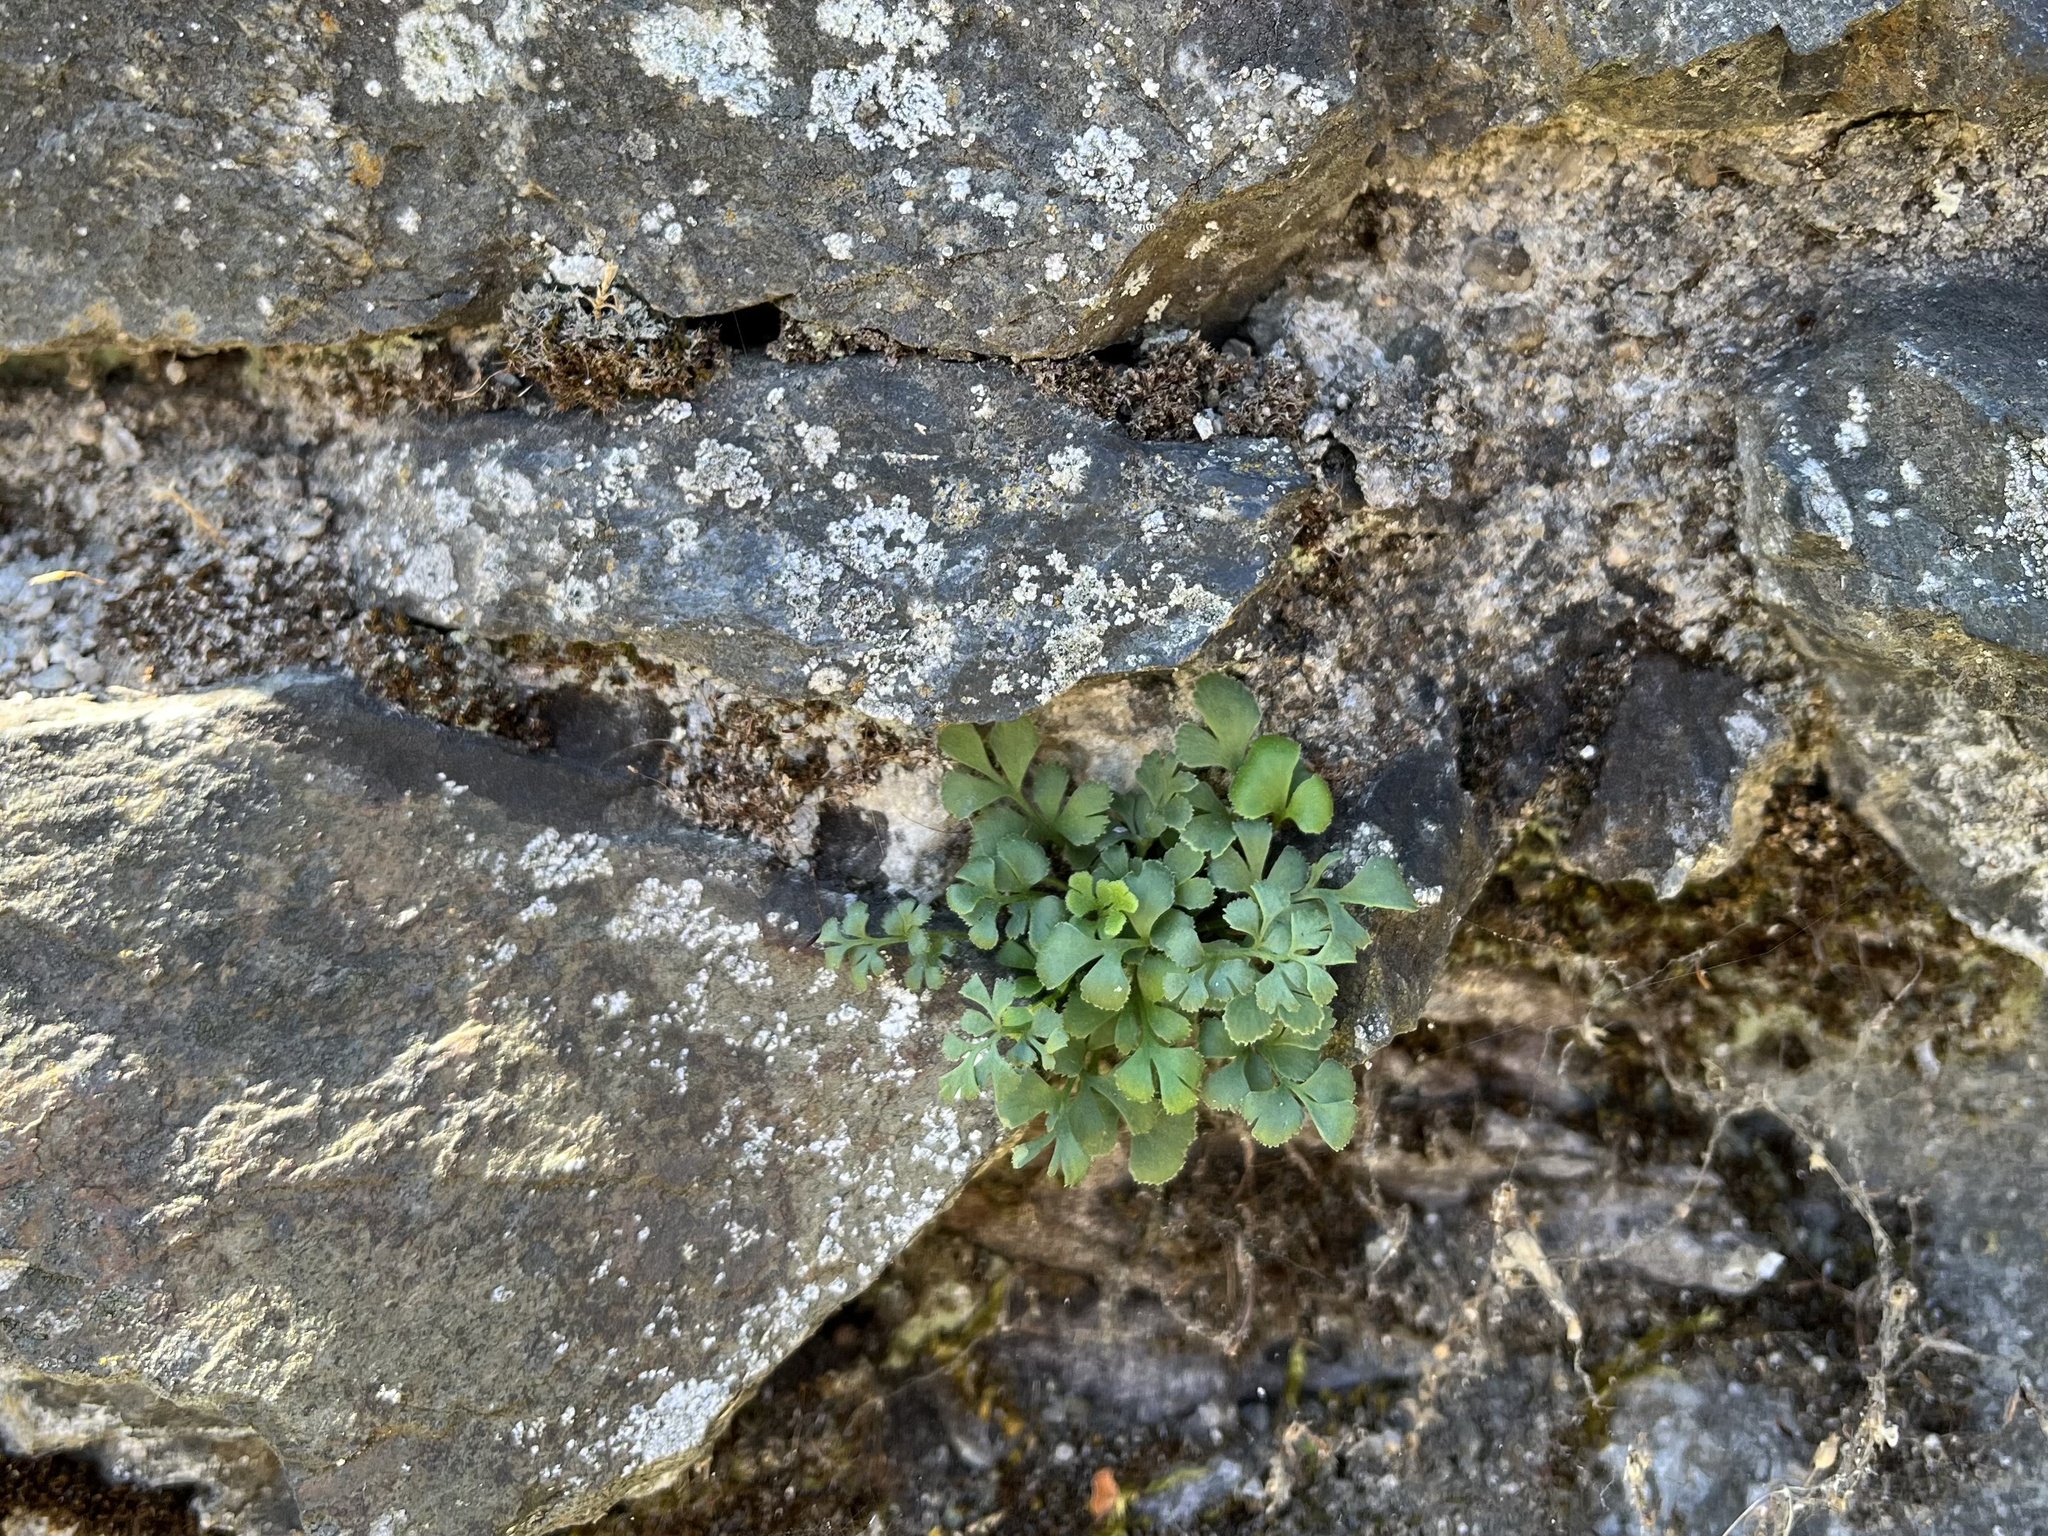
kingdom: Plantae
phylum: Tracheophyta
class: Polypodiopsida
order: Polypodiales
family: Aspleniaceae
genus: Asplenium
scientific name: Asplenium ruta-muraria
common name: Wall-rue
